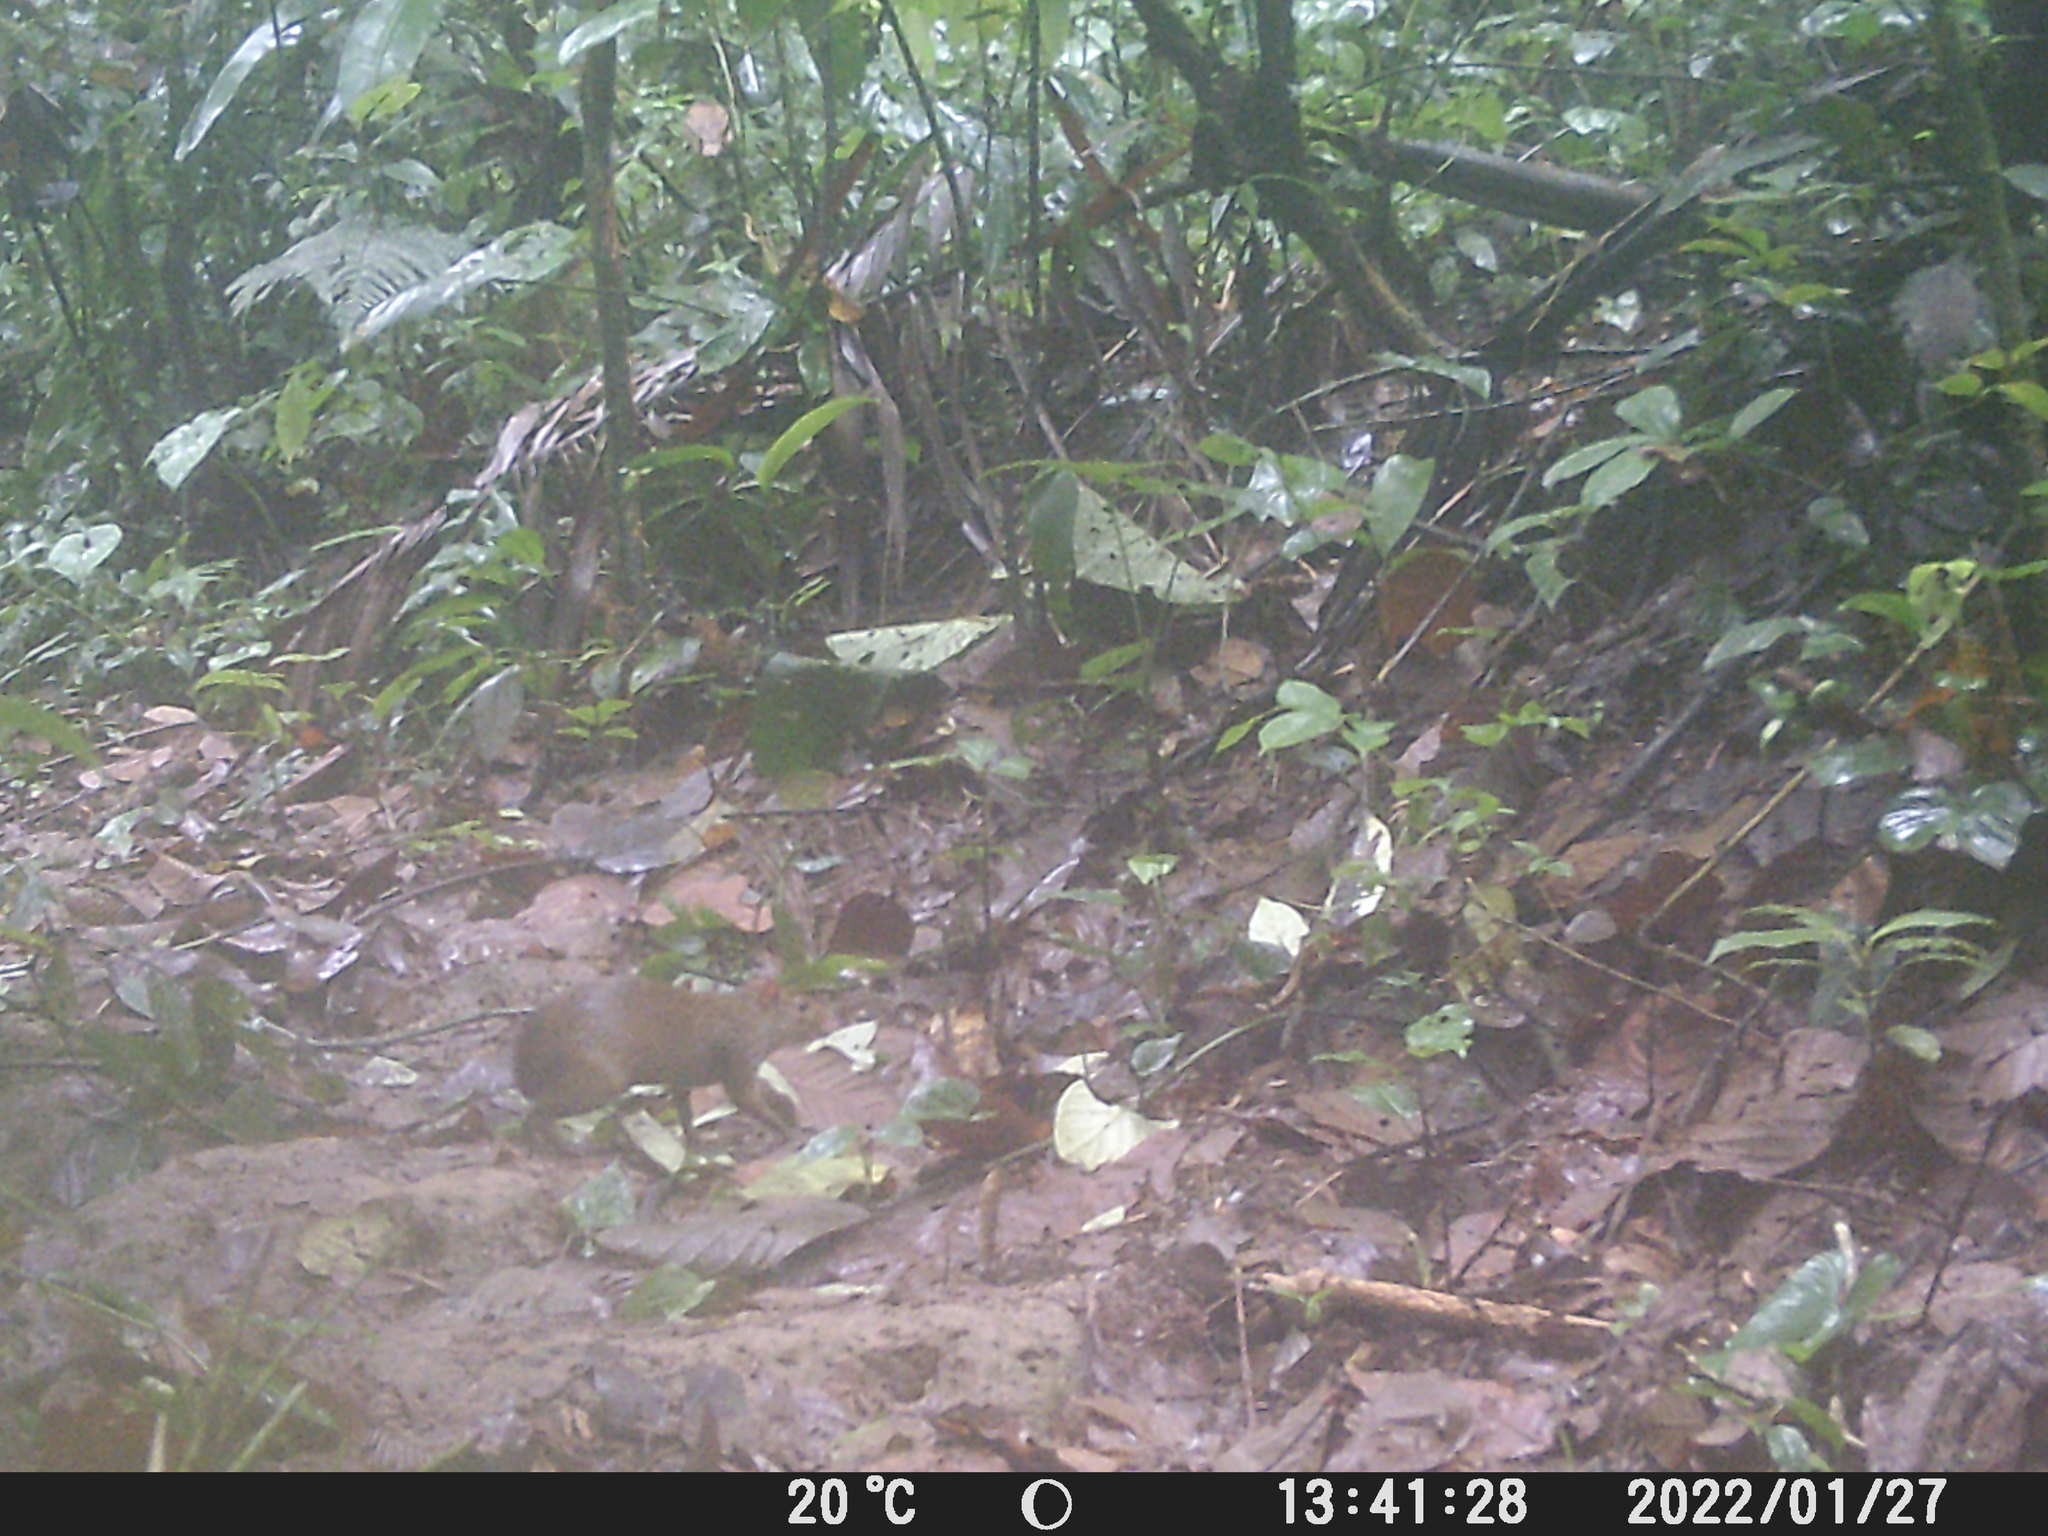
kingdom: Animalia
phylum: Chordata
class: Mammalia
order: Rodentia
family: Dasyproctidae
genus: Dasyprocta
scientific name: Dasyprocta punctata
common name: Central american agouti
